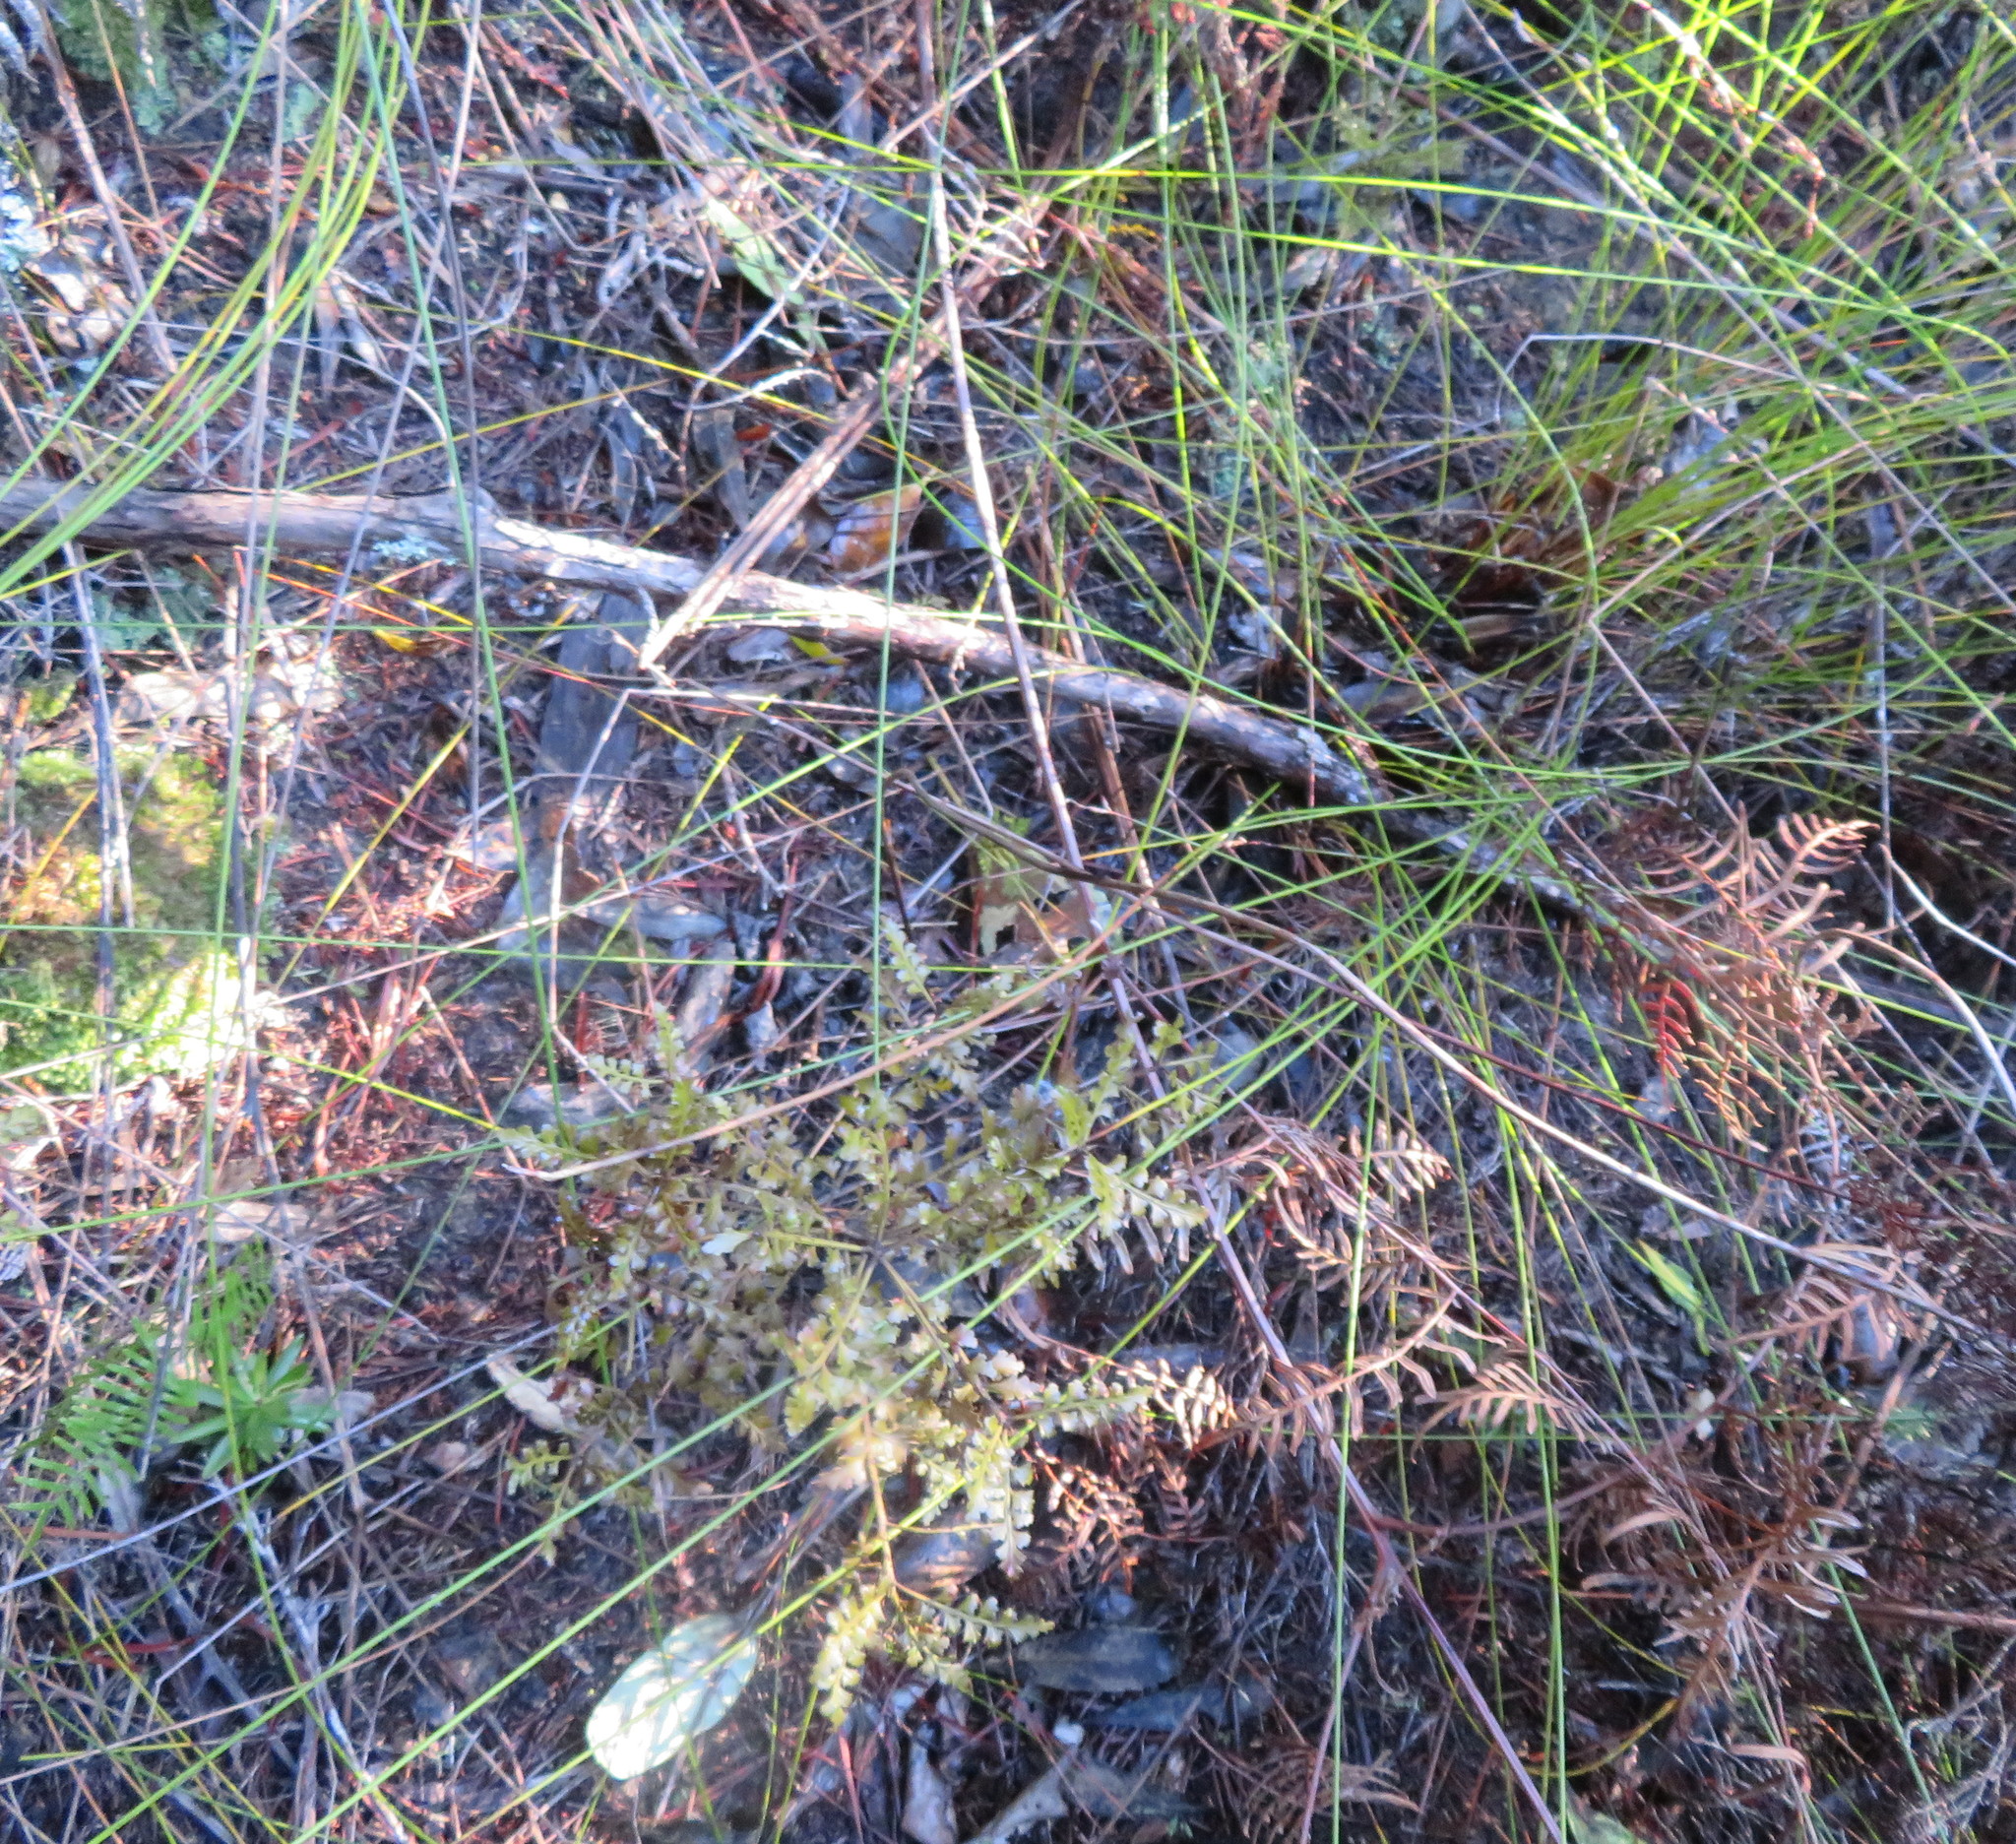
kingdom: Plantae
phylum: Tracheophyta
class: Pinopsida
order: Pinales
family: Phyllocladaceae
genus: Phyllocladus
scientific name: Phyllocladus trichomanoides
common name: Celery pine
